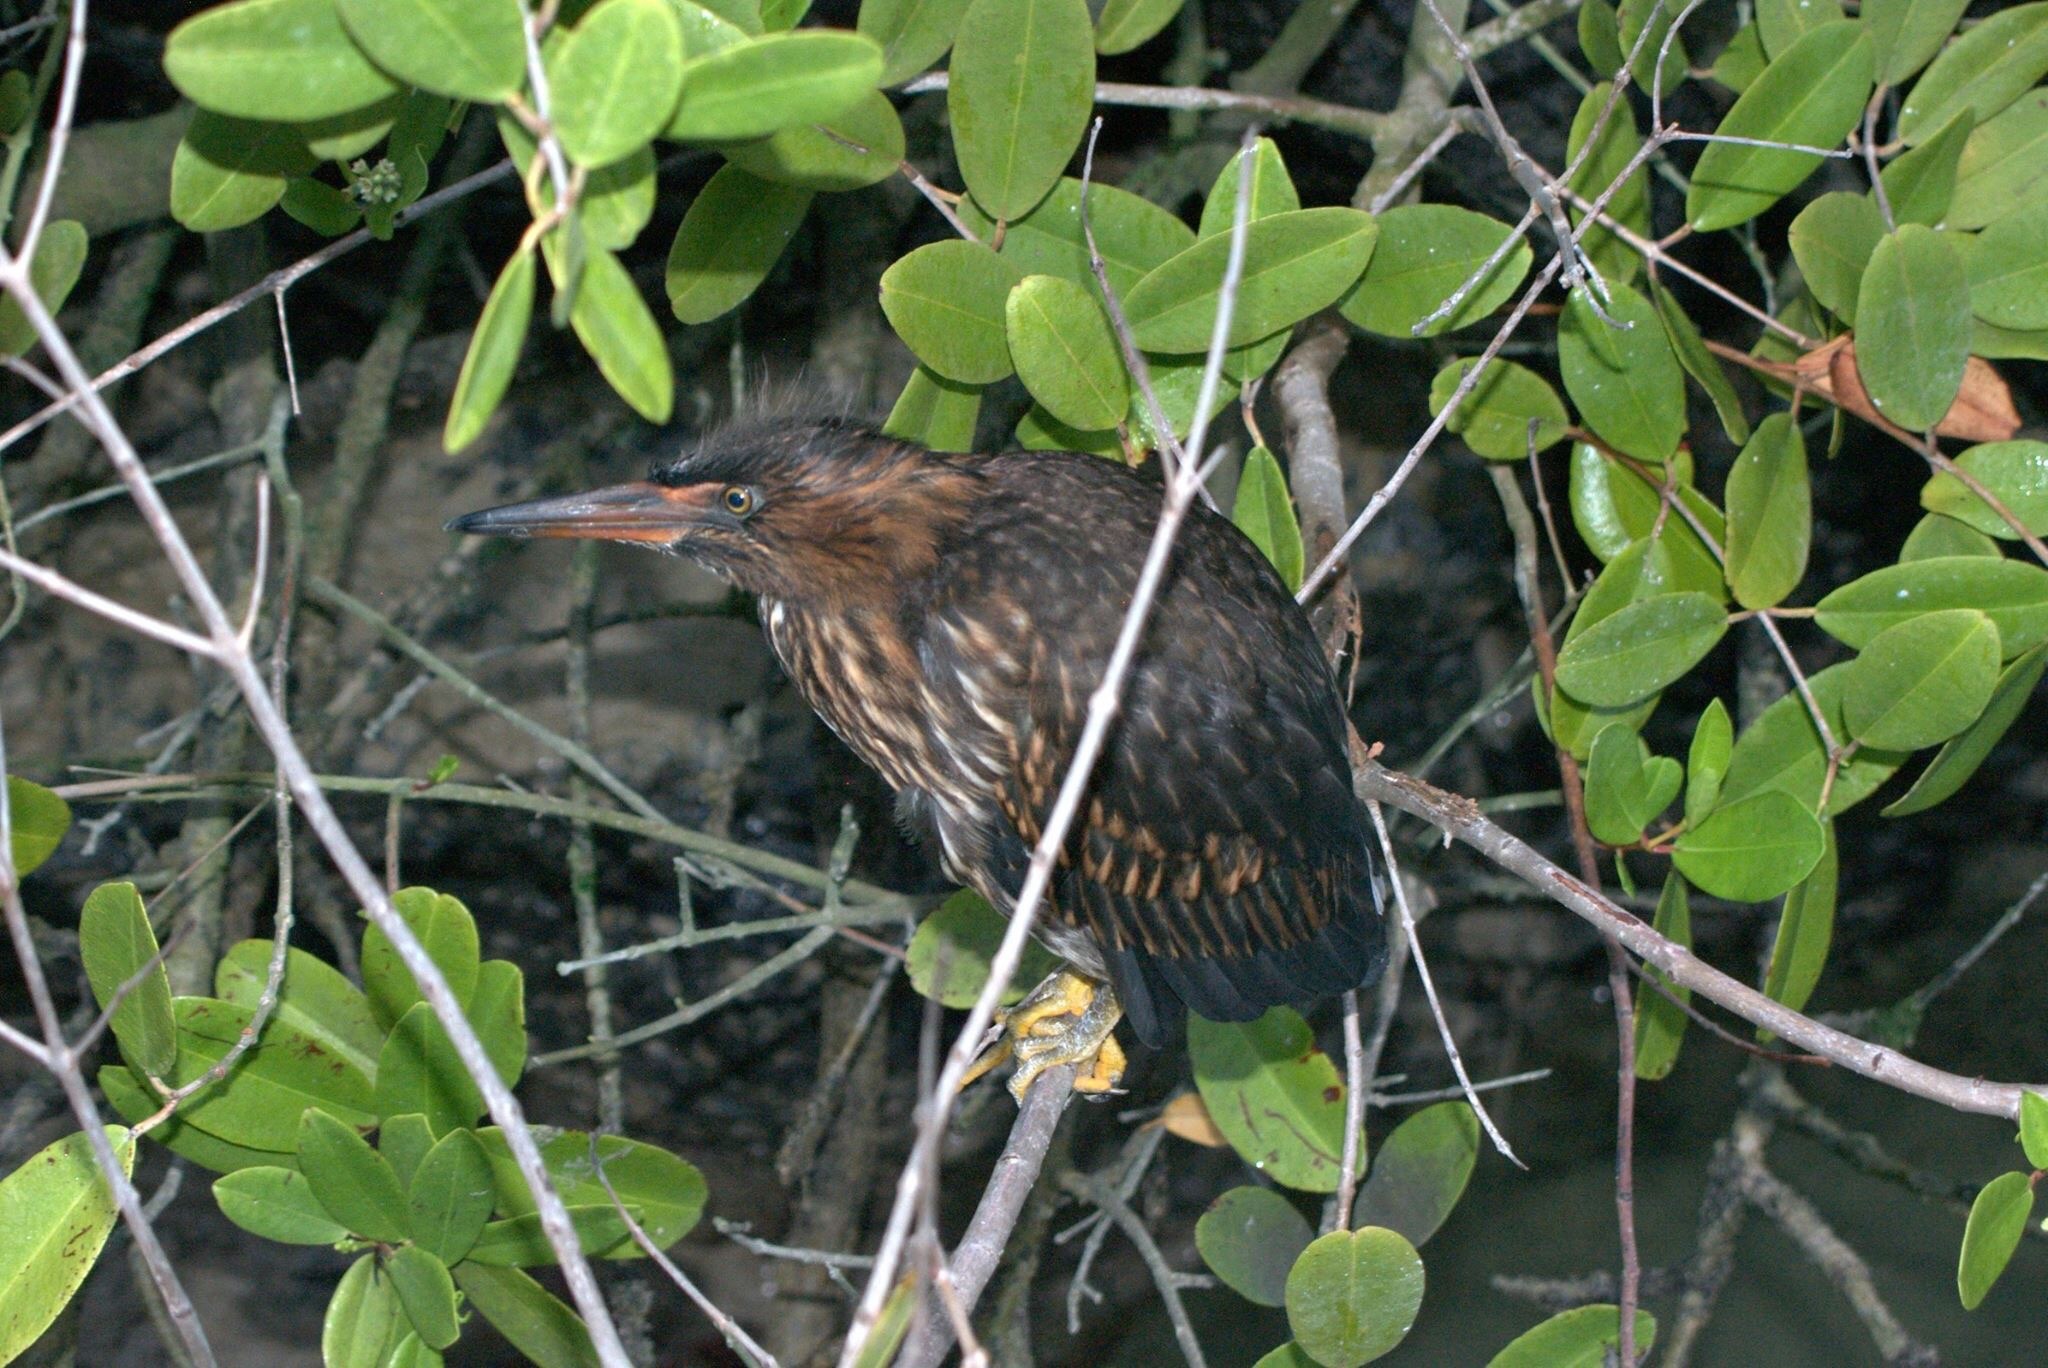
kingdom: Animalia
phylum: Chordata
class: Aves
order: Pelecaniformes
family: Ardeidae
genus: Butorides
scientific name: Butorides striata
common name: Striated heron
